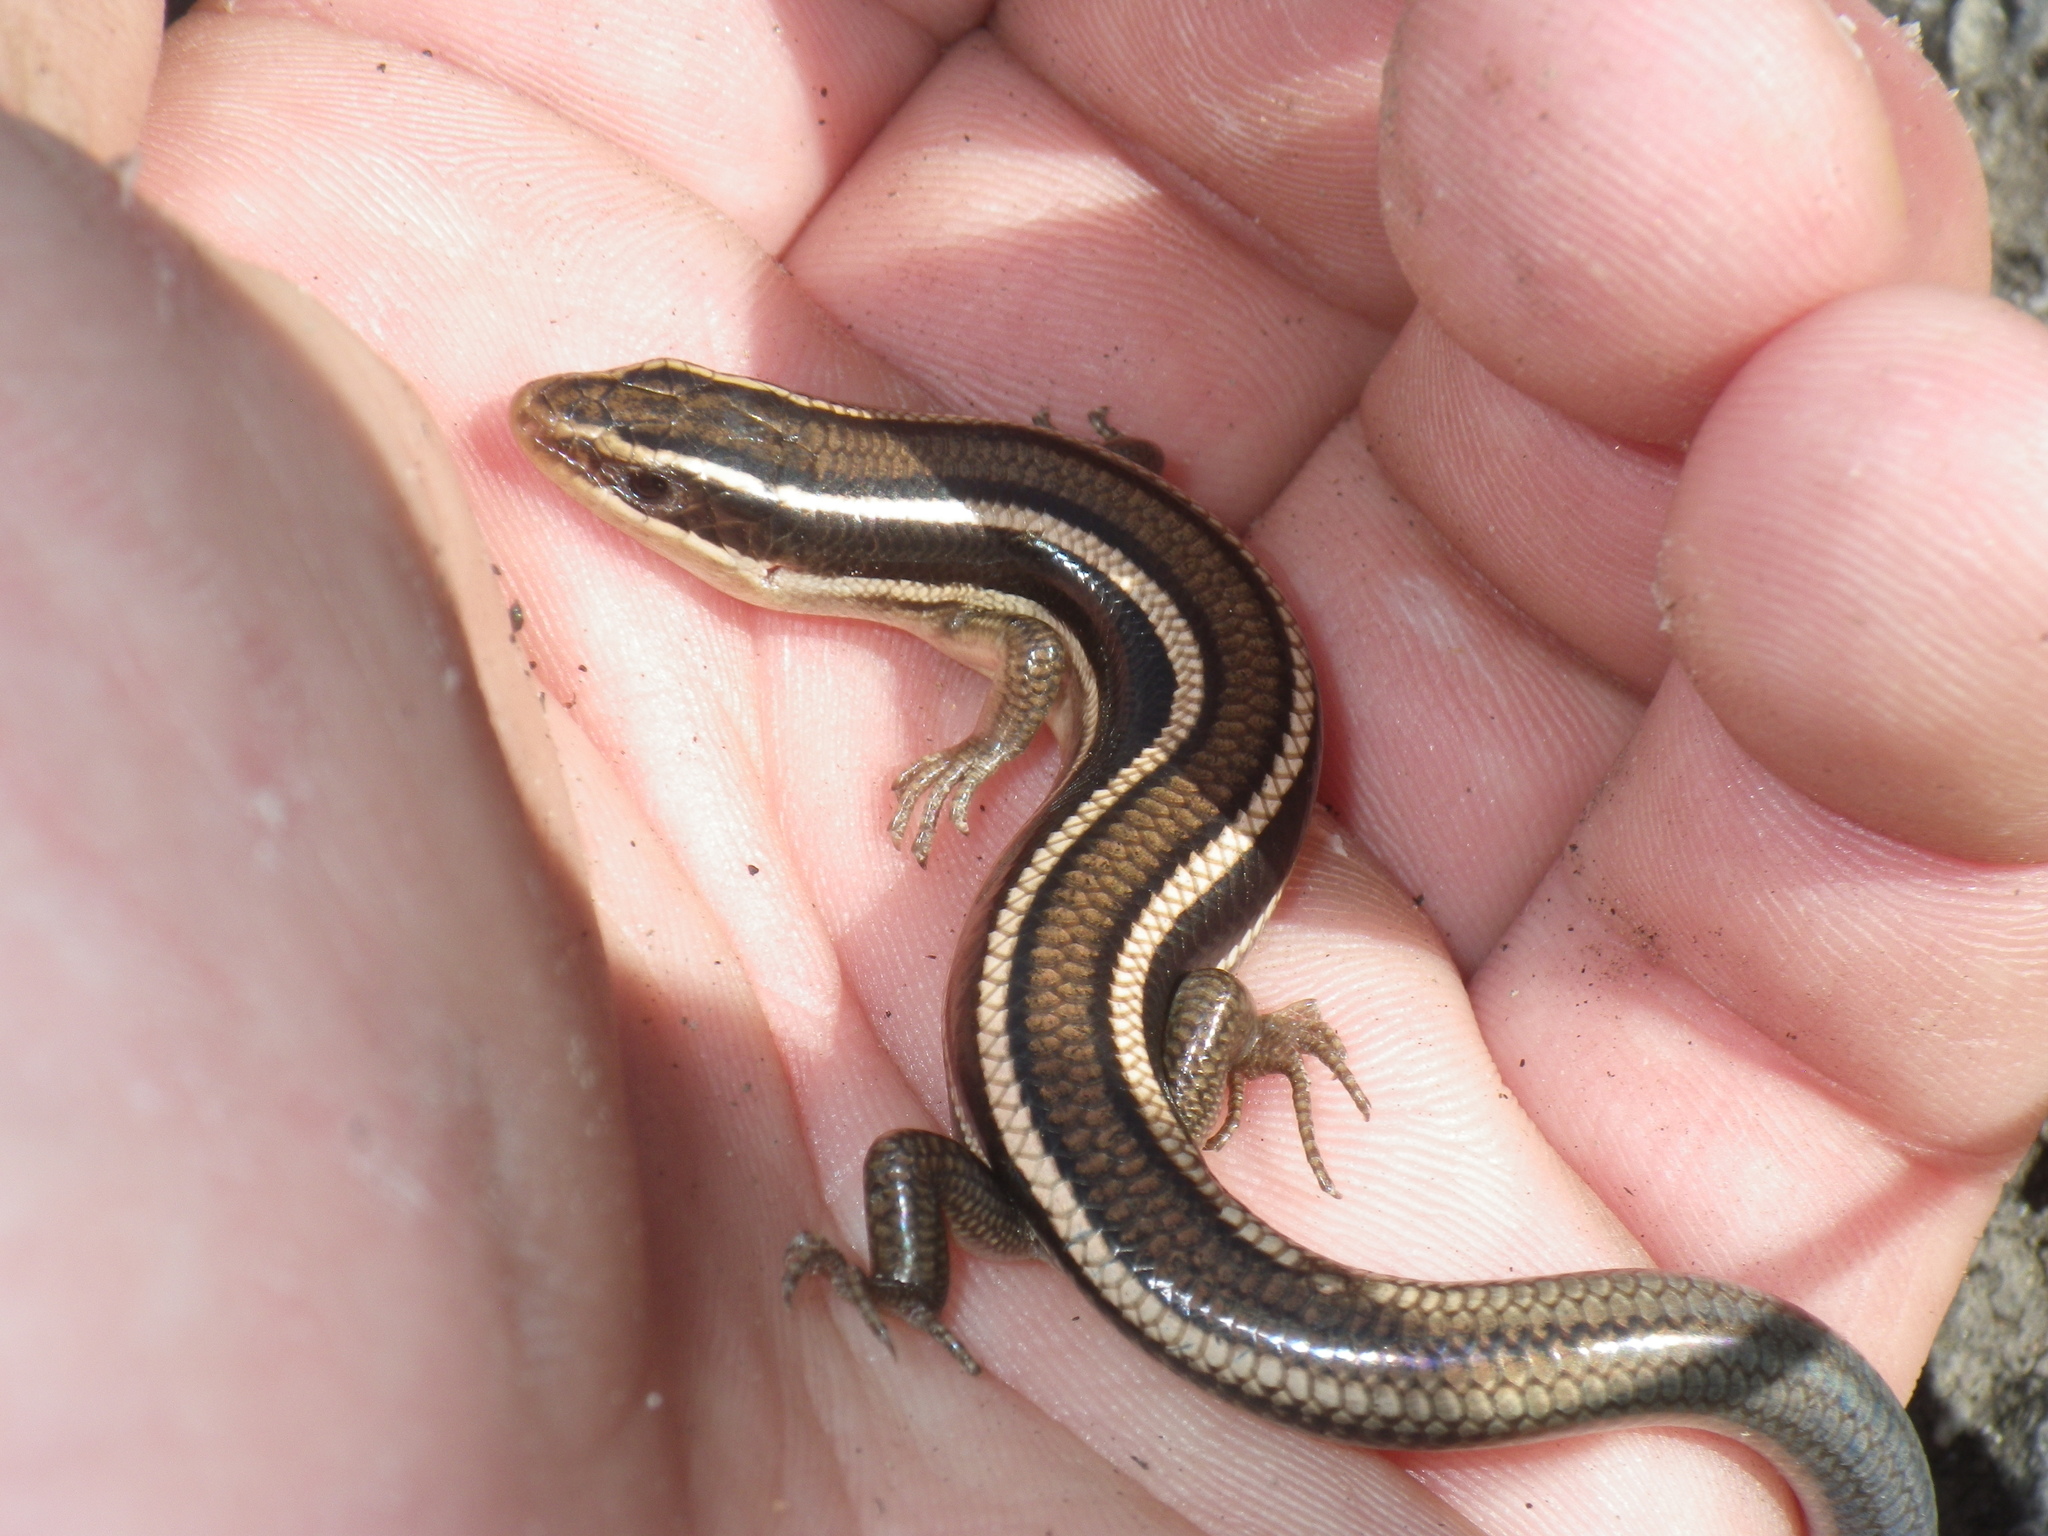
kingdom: Animalia
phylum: Chordata
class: Squamata
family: Scincidae
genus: Plestiodon
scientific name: Plestiodon gilberti
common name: Gilbert's skink
